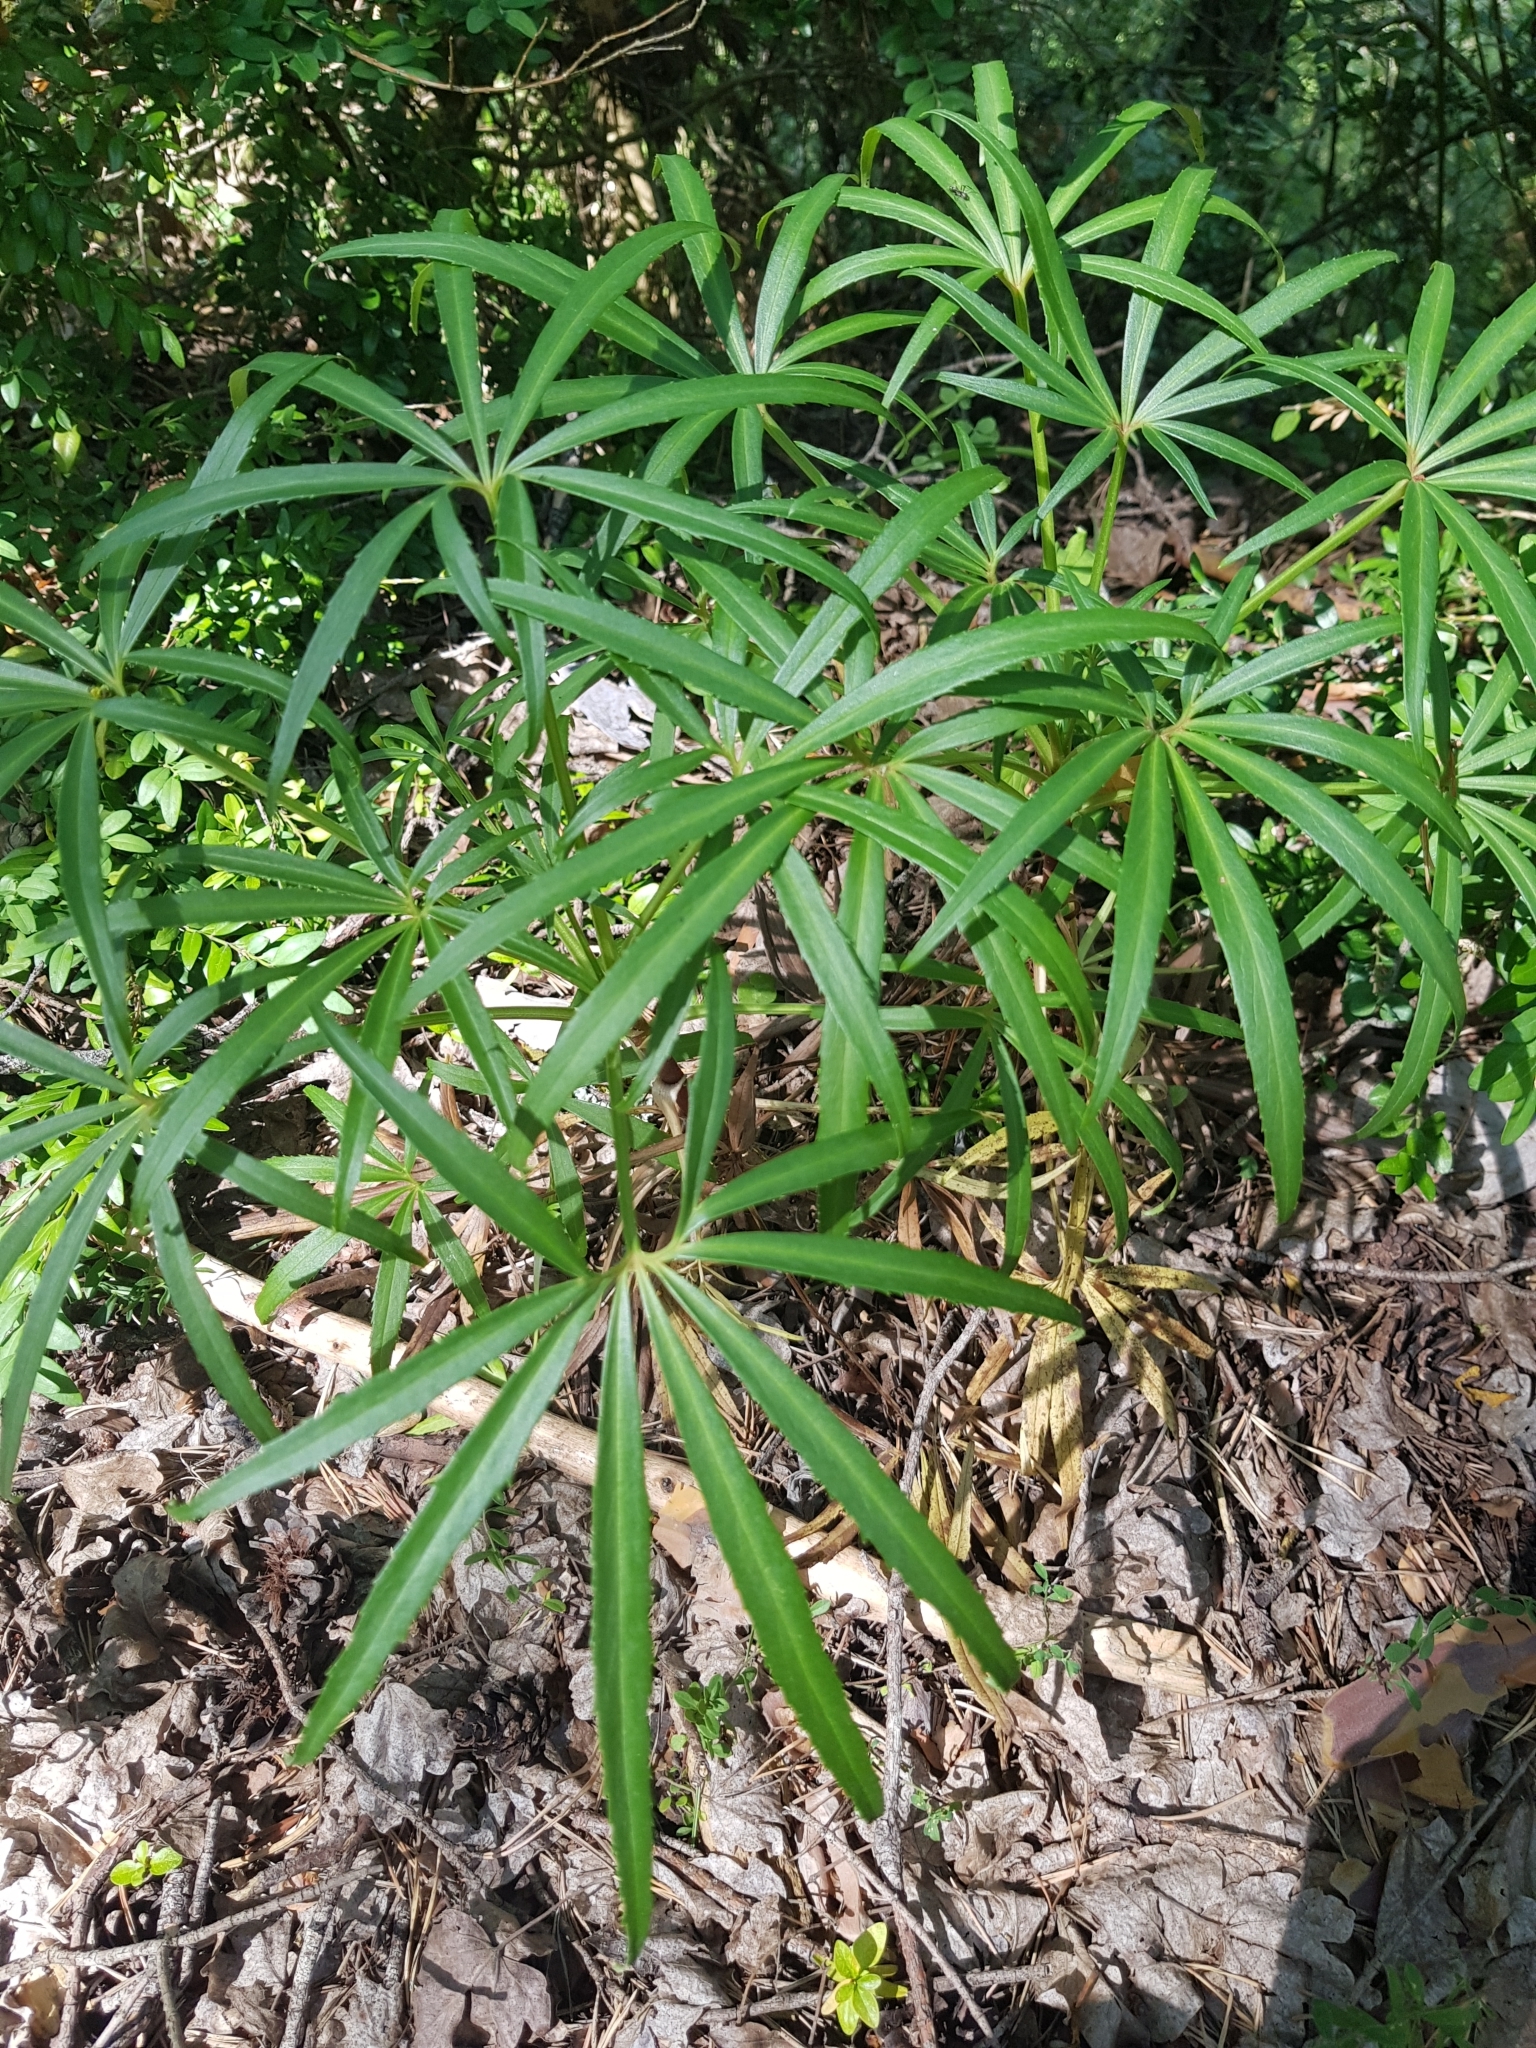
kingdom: Plantae
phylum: Tracheophyta
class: Magnoliopsida
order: Ranunculales
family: Ranunculaceae
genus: Helleborus
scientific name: Helleborus foetidus
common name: Stinking hellebore
